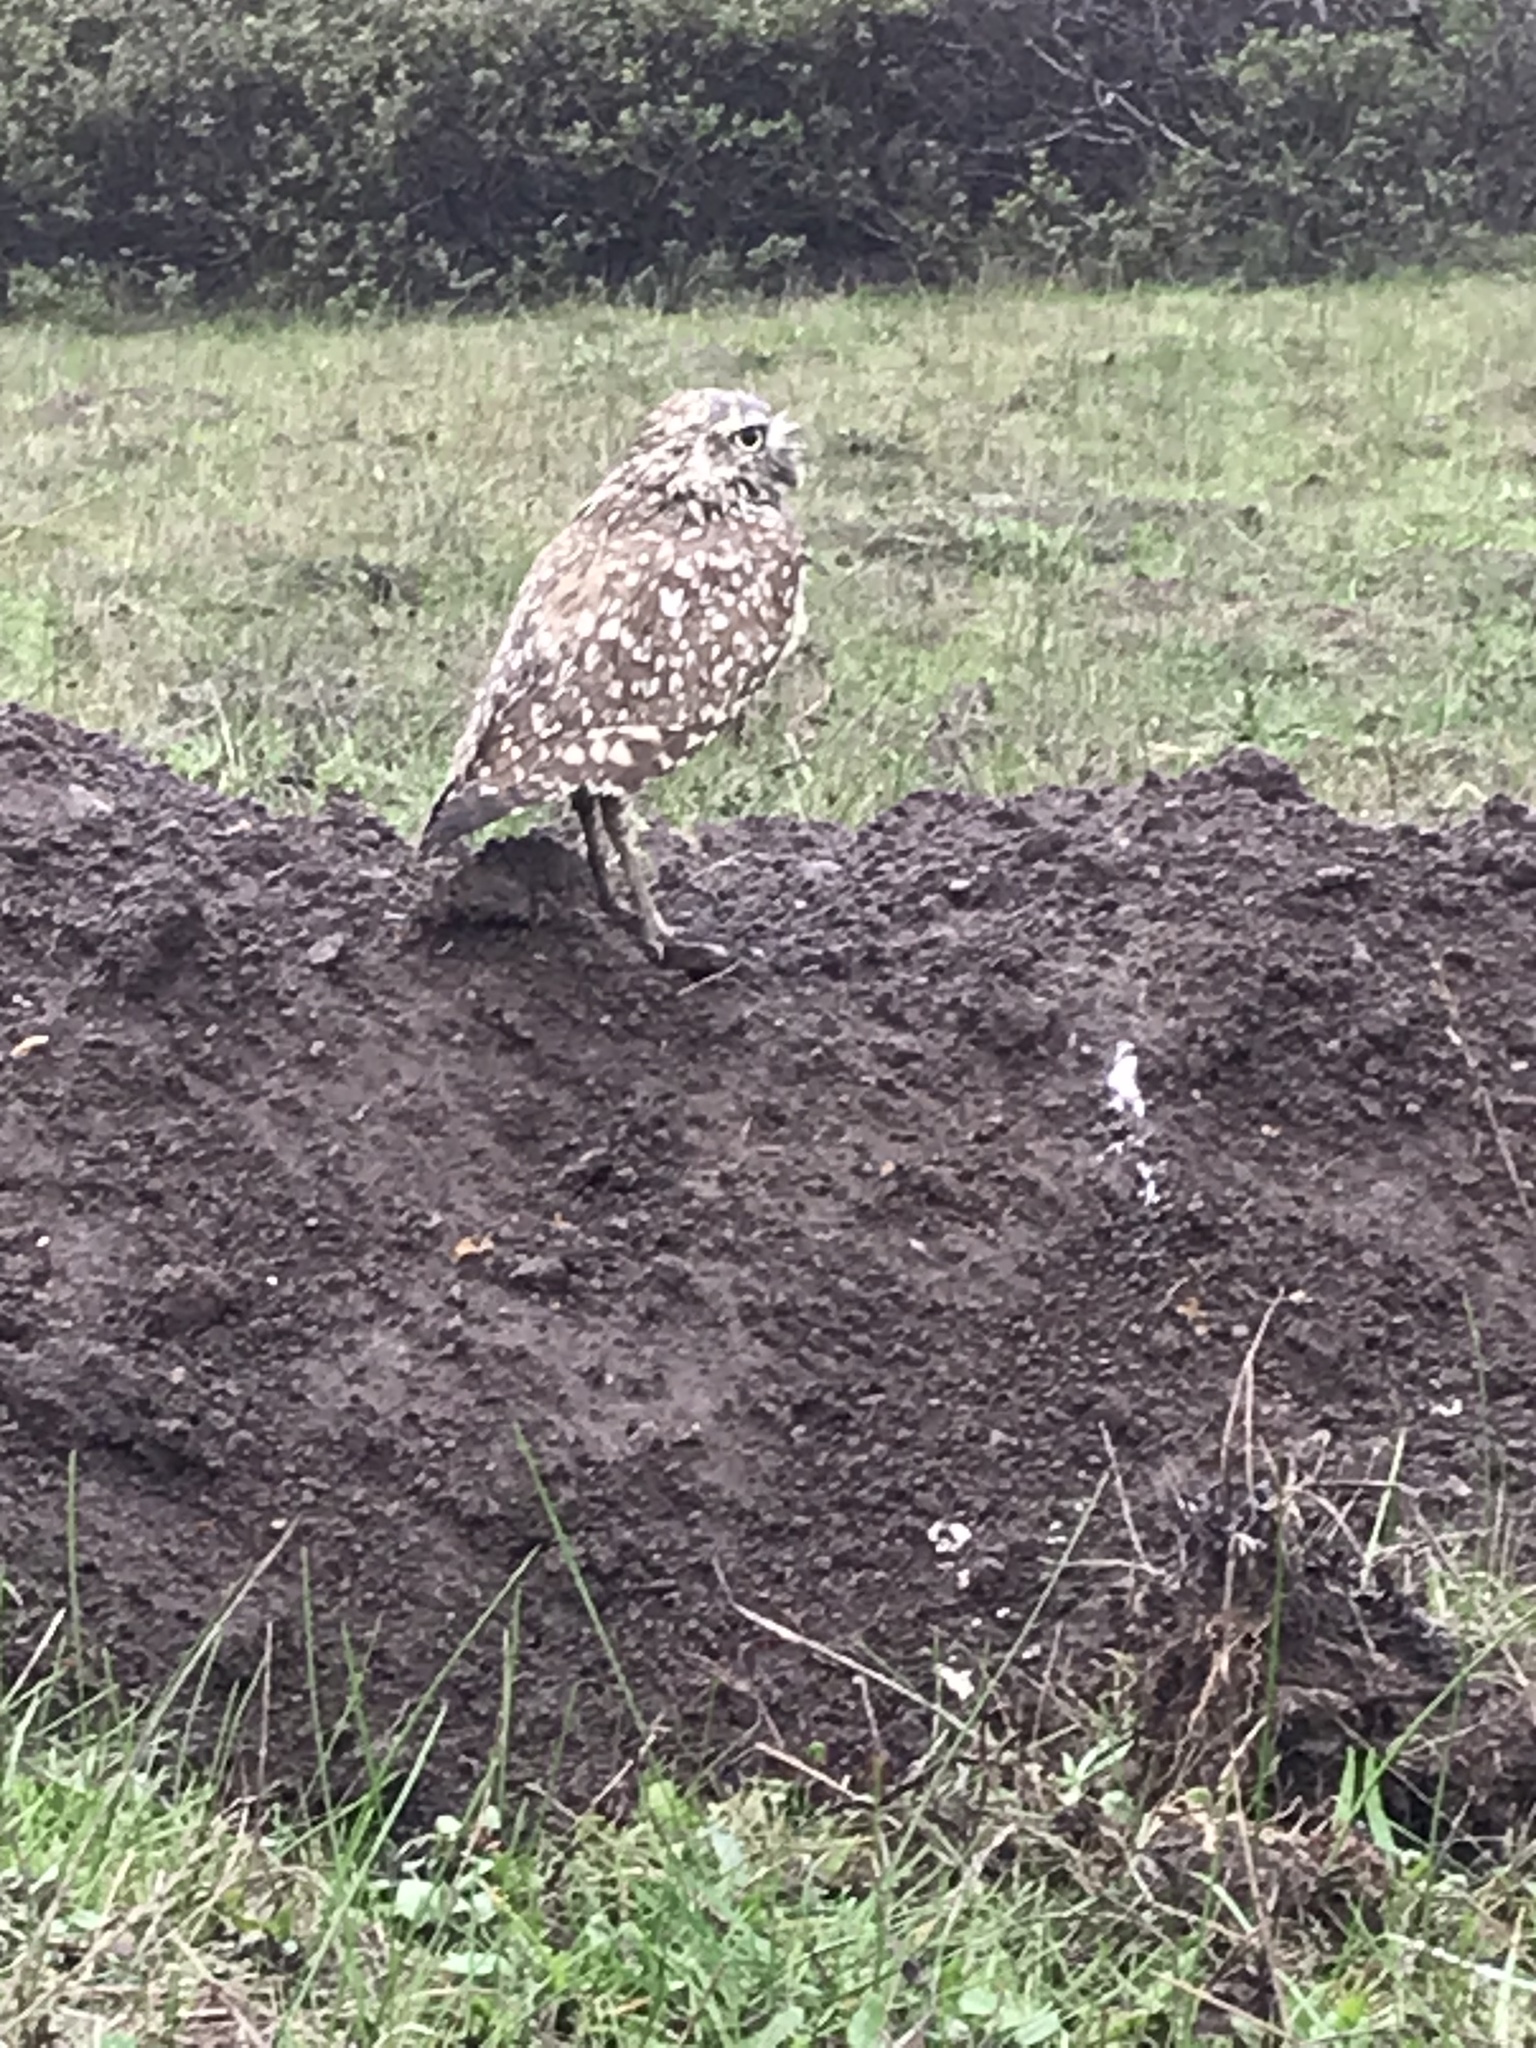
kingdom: Animalia
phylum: Chordata
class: Aves
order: Strigiformes
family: Strigidae
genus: Athene
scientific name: Athene cunicularia
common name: Burrowing owl
